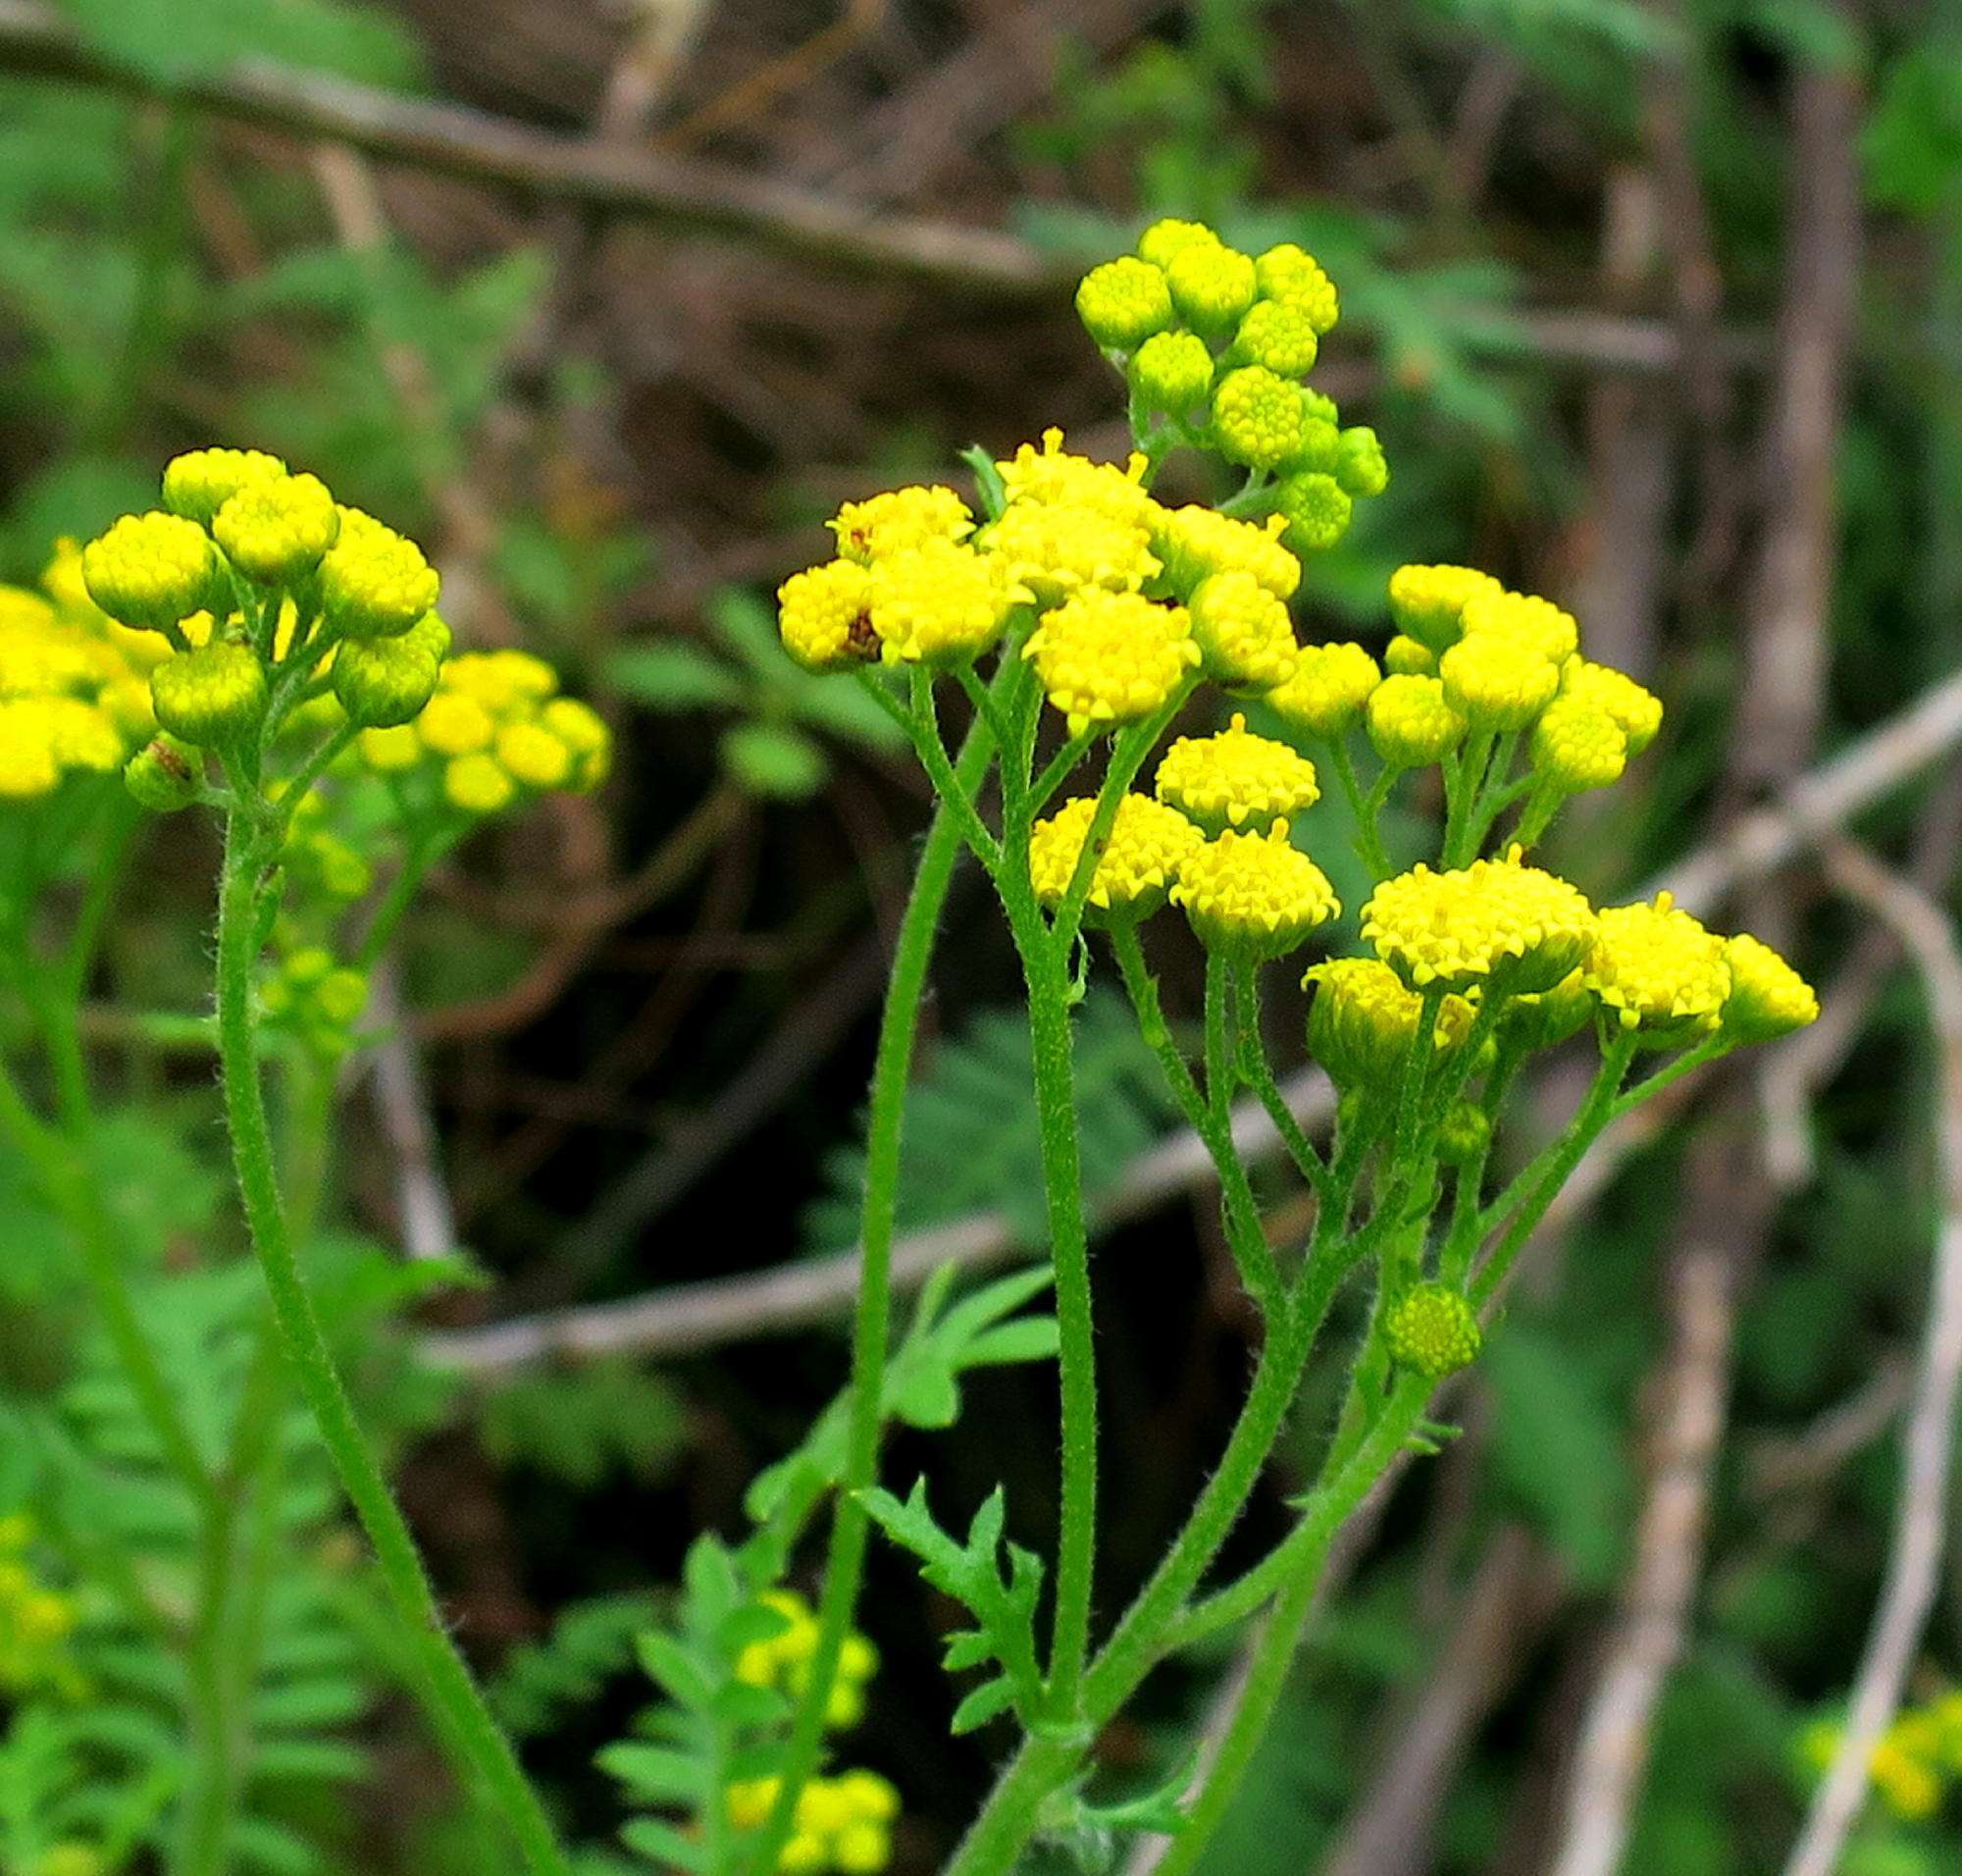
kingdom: Plantae
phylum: Tracheophyta
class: Magnoliopsida
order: Asterales
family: Asteraceae
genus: Hippia
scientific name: Hippia frutescens
